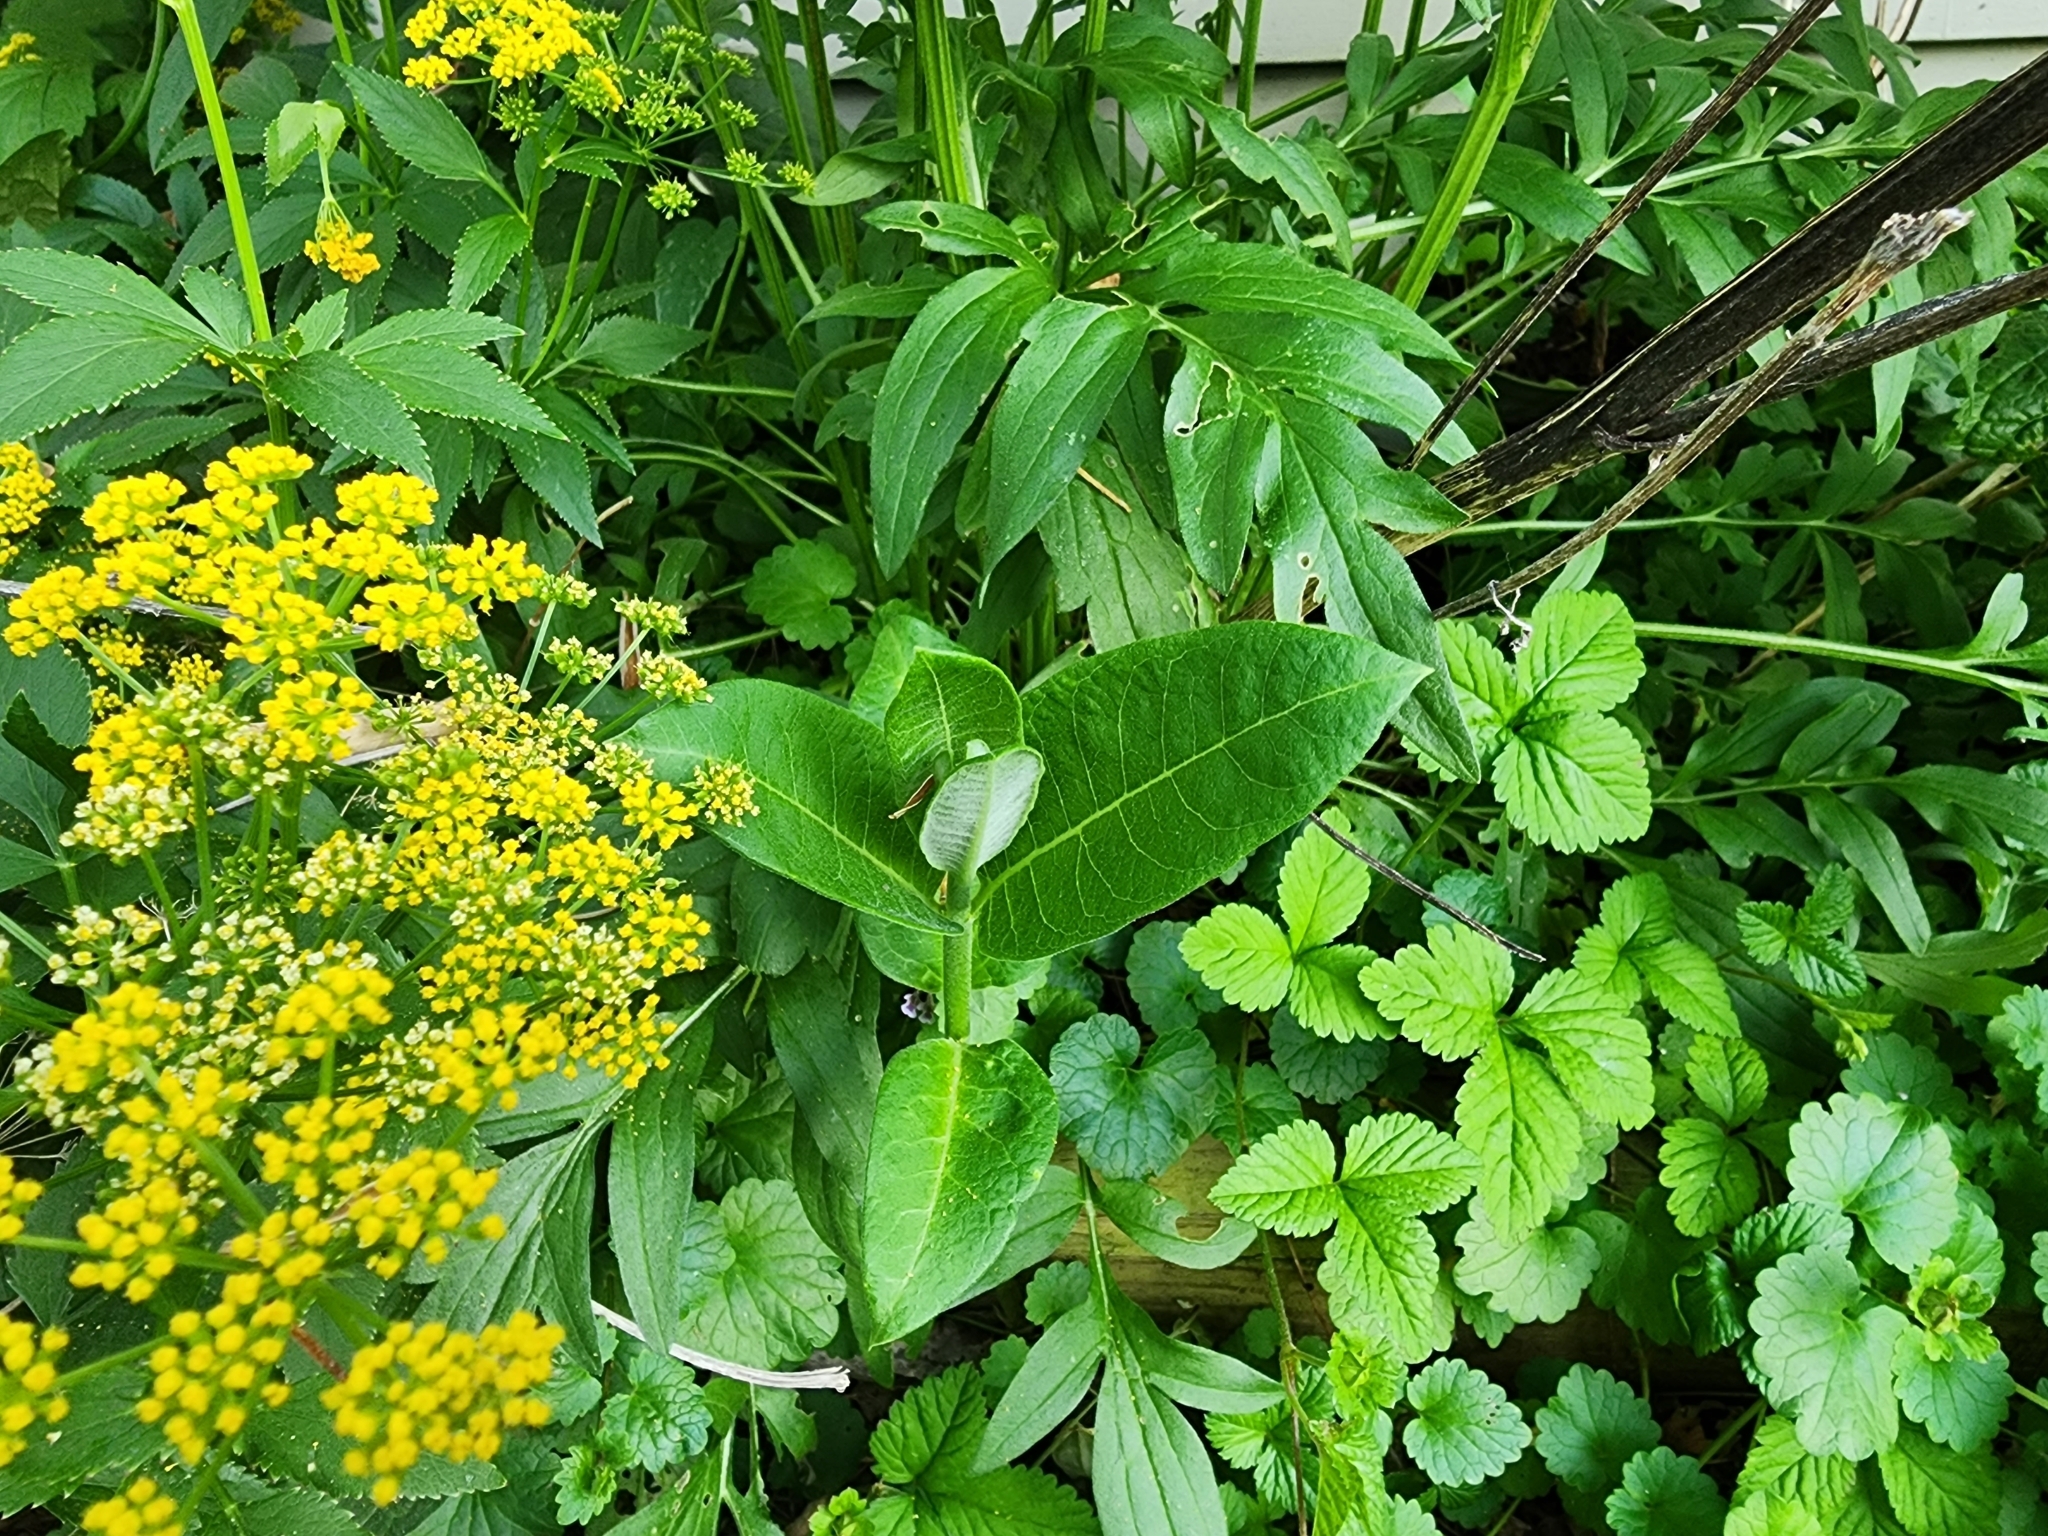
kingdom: Plantae
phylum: Tracheophyta
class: Magnoliopsida
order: Gentianales
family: Apocynaceae
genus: Asclepias
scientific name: Asclepias syriaca
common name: Common milkweed
